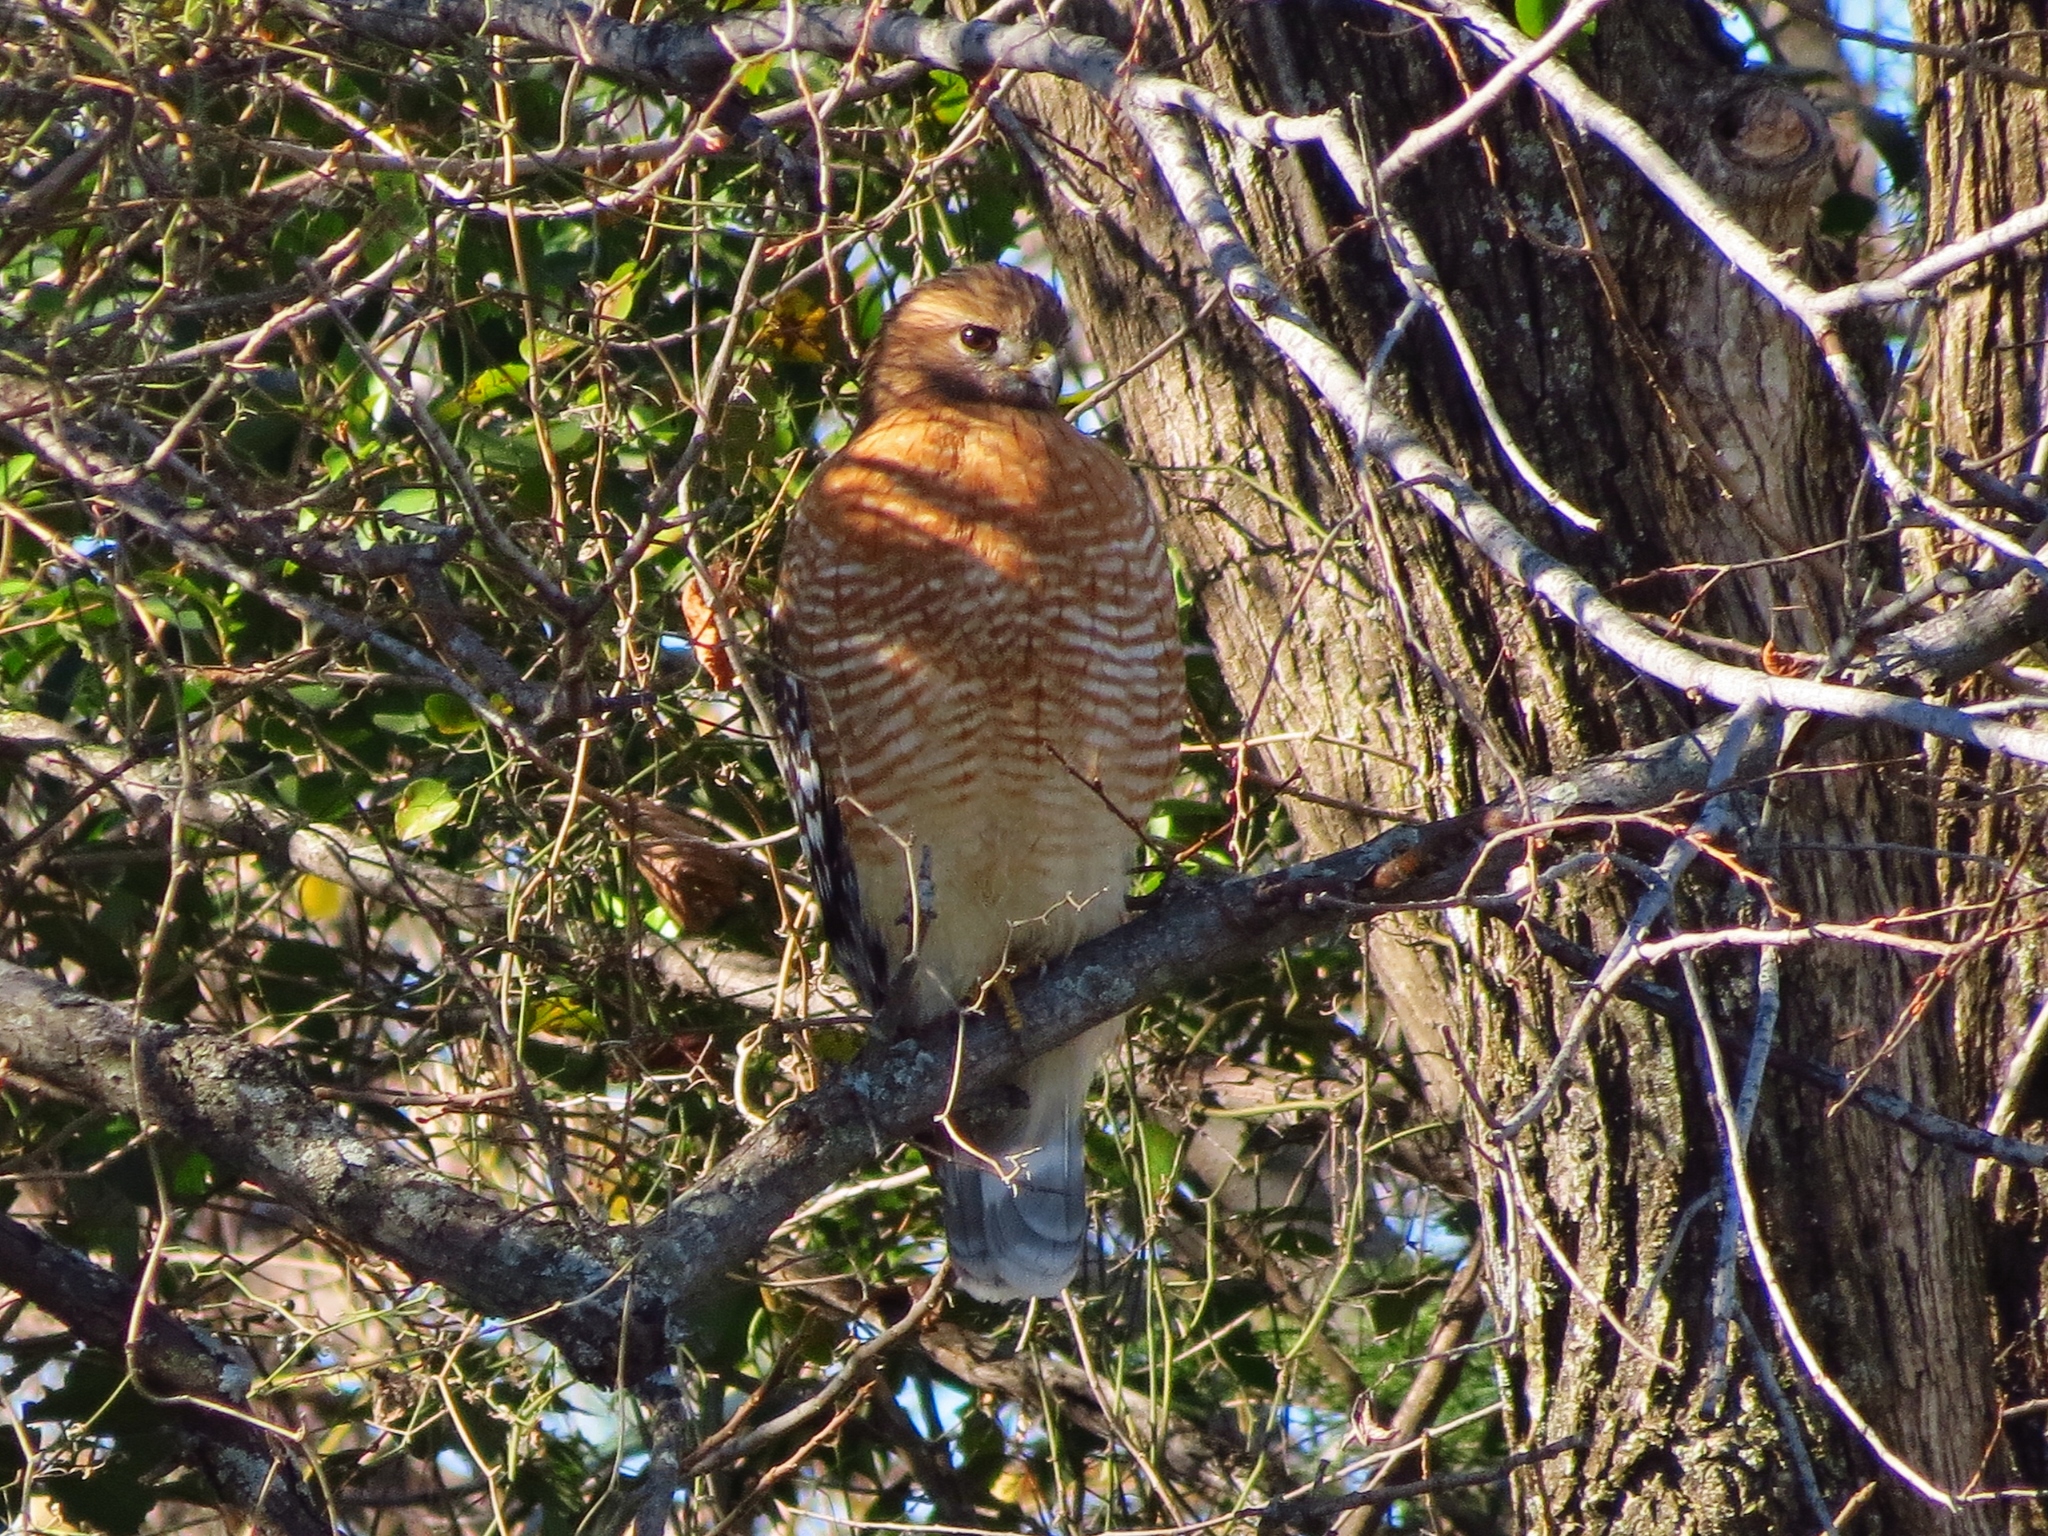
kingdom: Animalia
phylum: Chordata
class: Aves
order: Accipitriformes
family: Accipitridae
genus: Buteo
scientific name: Buteo lineatus
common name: Red-shouldered hawk
